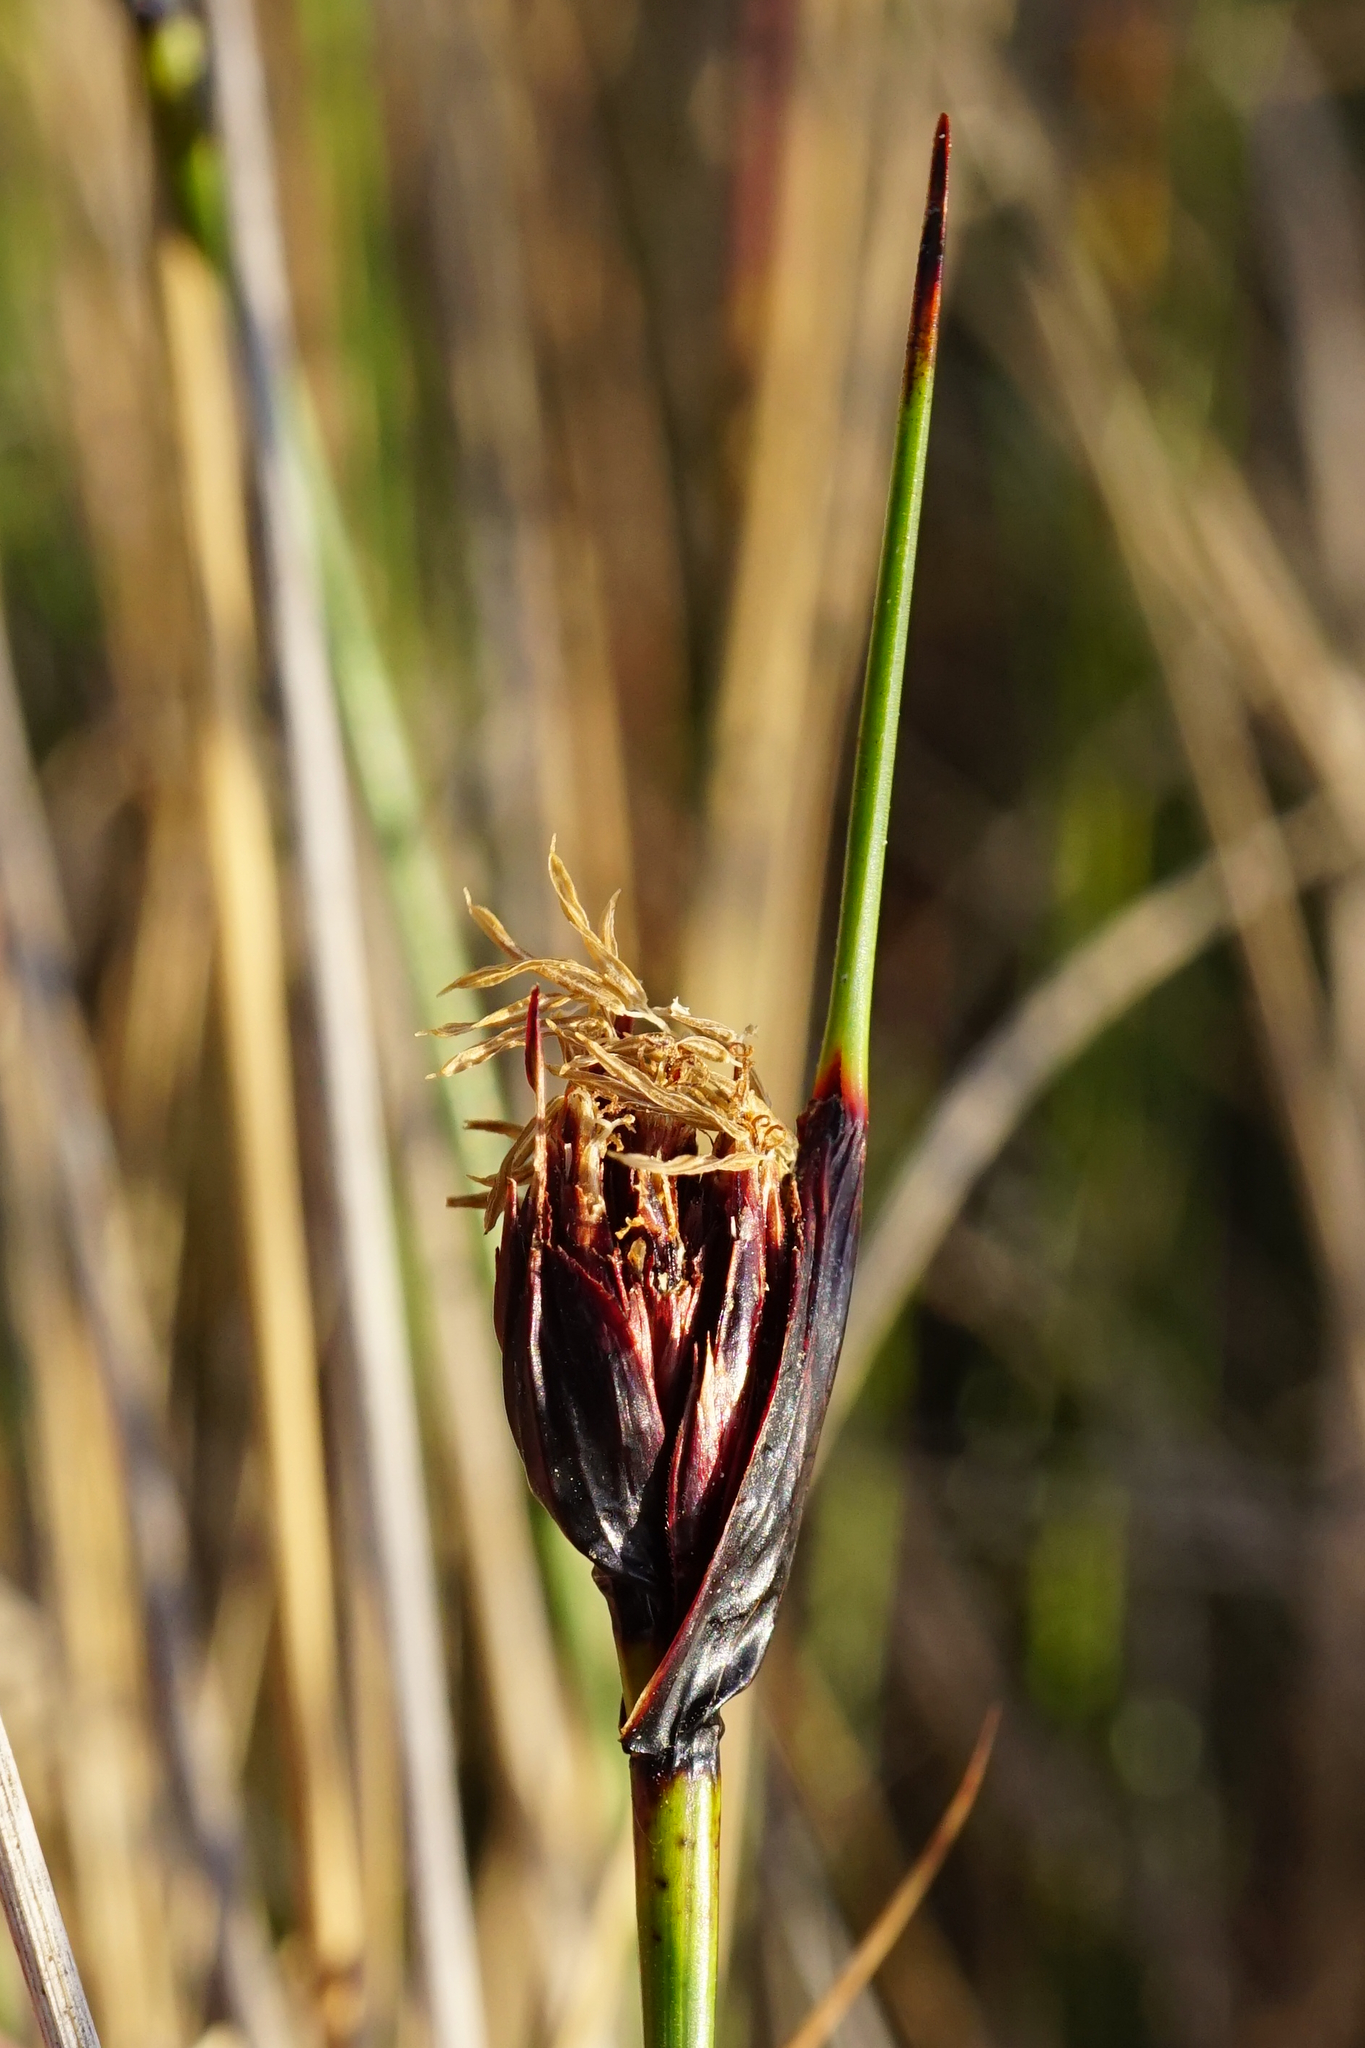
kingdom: Plantae
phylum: Tracheophyta
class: Liliopsida
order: Poales
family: Cyperaceae
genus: Schoenus
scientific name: Schoenus nigricans
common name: Black bog-rush
